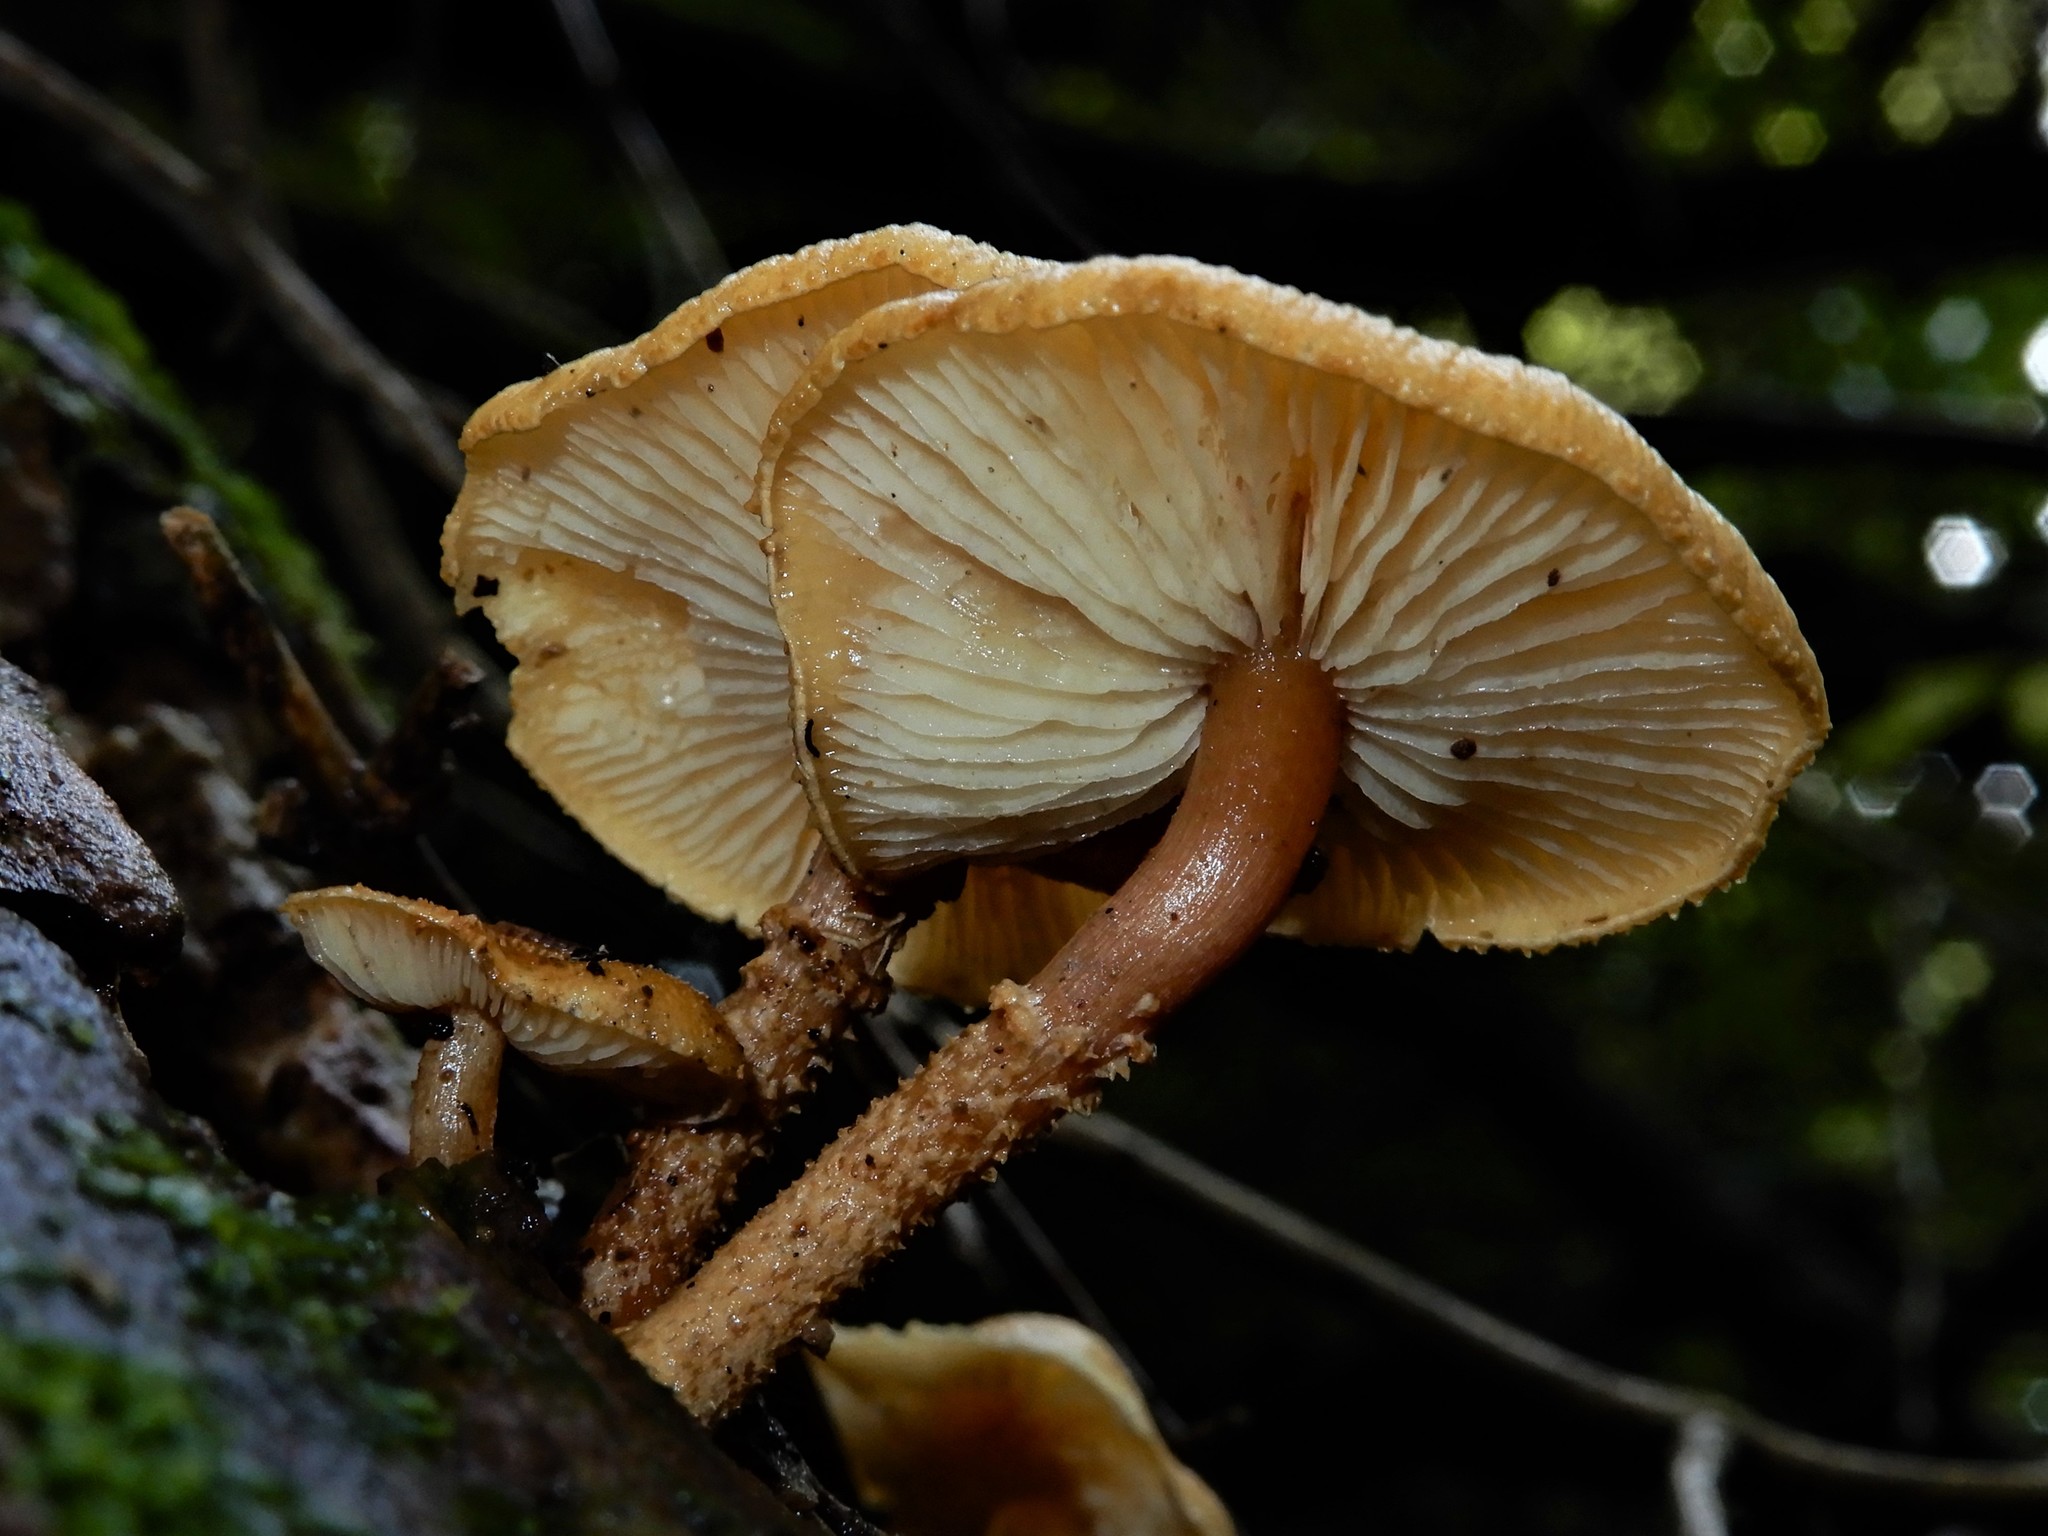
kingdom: Fungi
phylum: Basidiomycota
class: Agaricomycetes
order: Agaricales
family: Tricholomataceae
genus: Cystoderma
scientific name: Cystoderma
